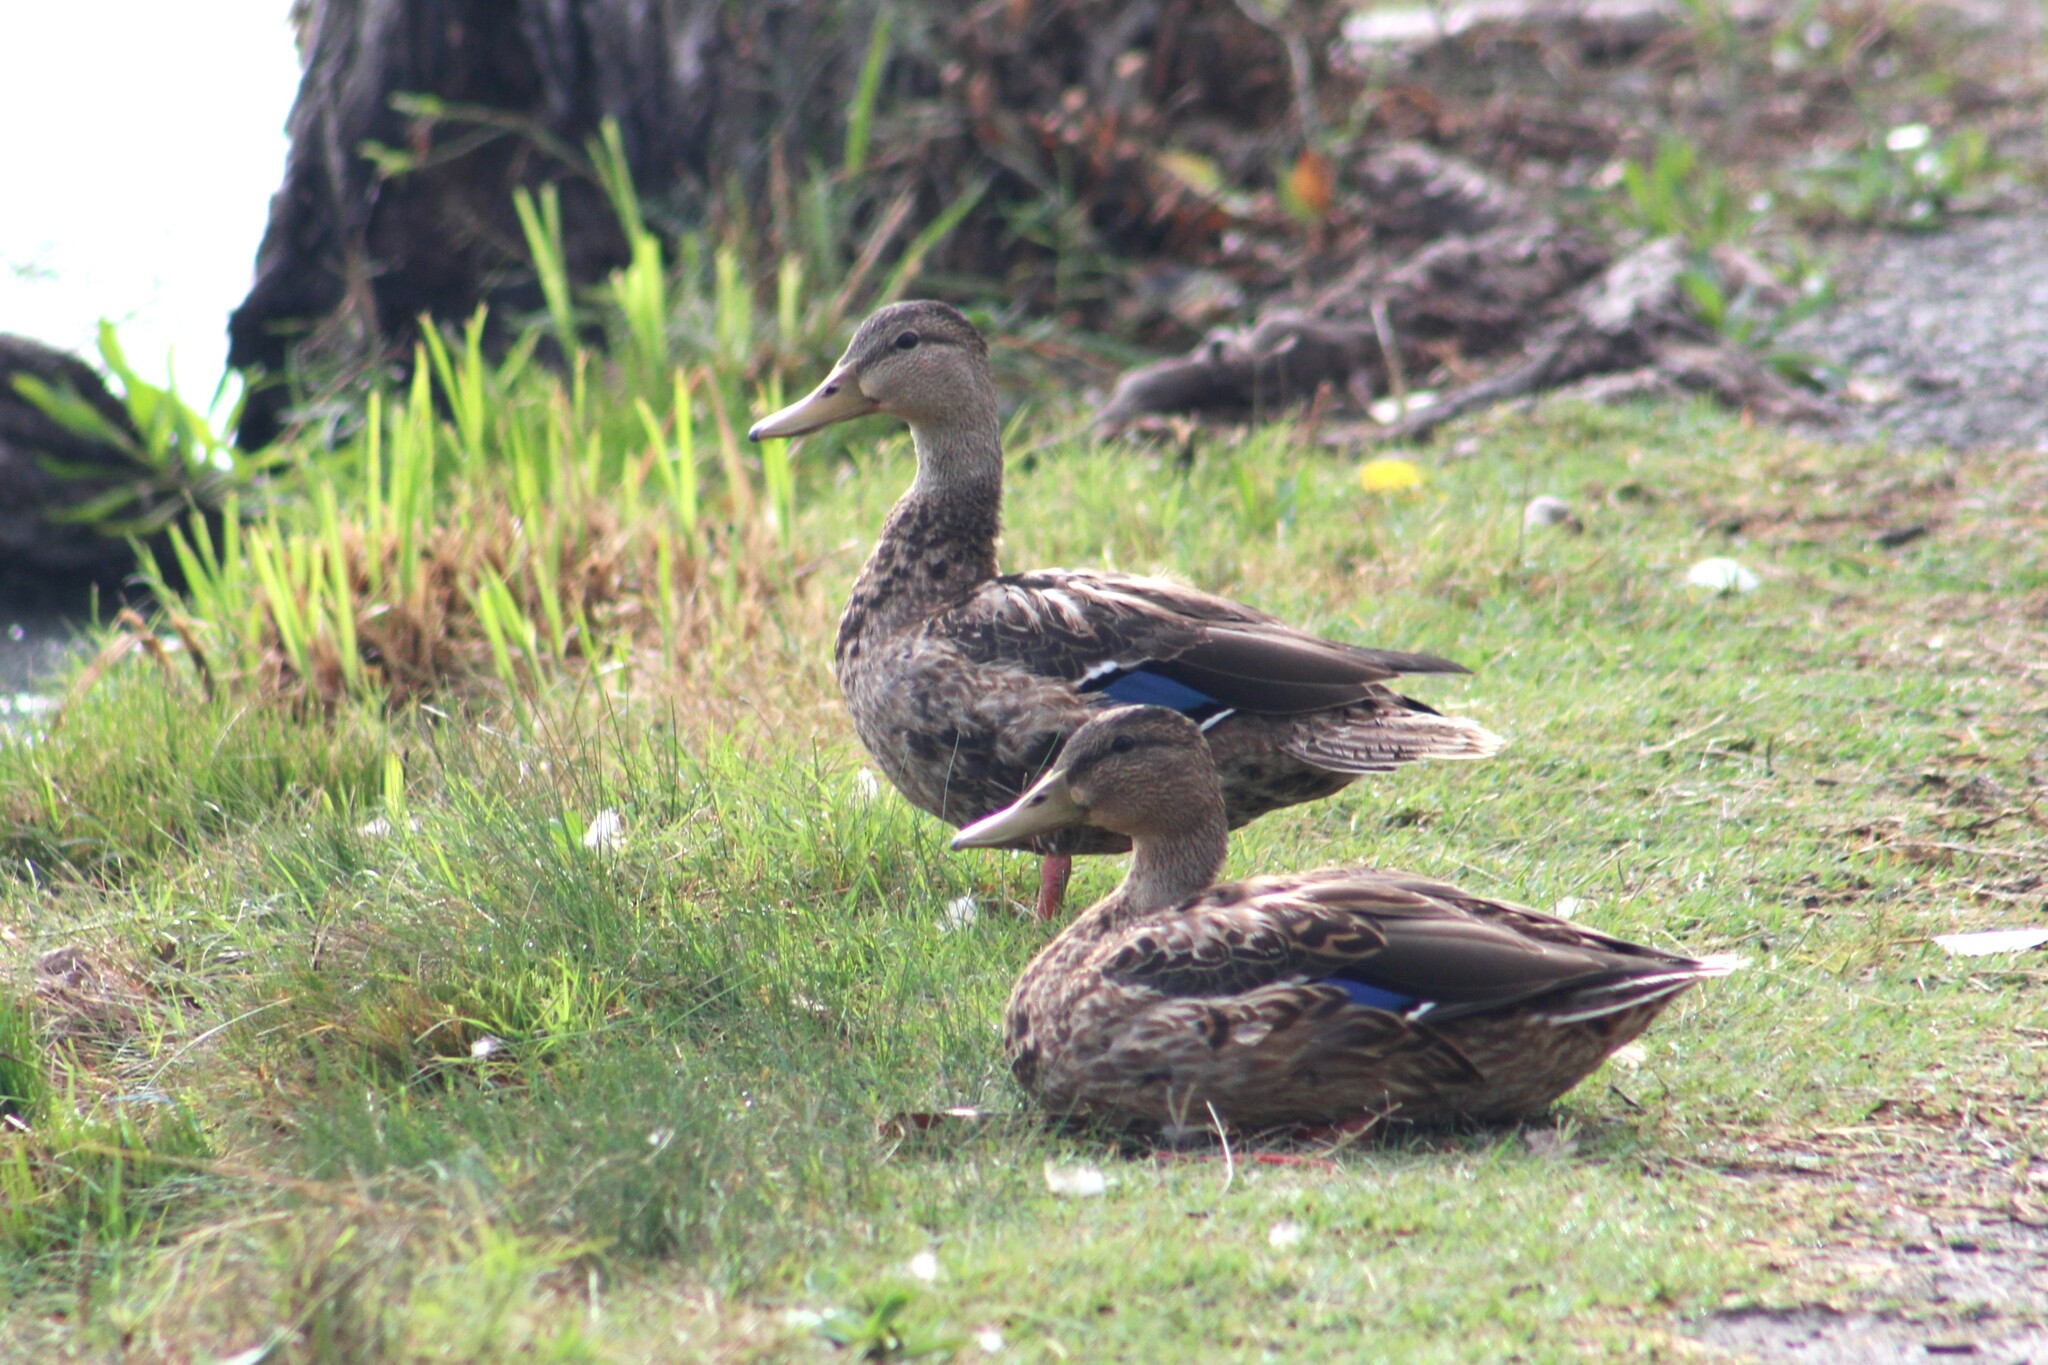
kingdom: Animalia
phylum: Chordata
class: Aves
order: Anseriformes
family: Anatidae
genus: Anas
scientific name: Anas diazi
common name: Mexican duck
